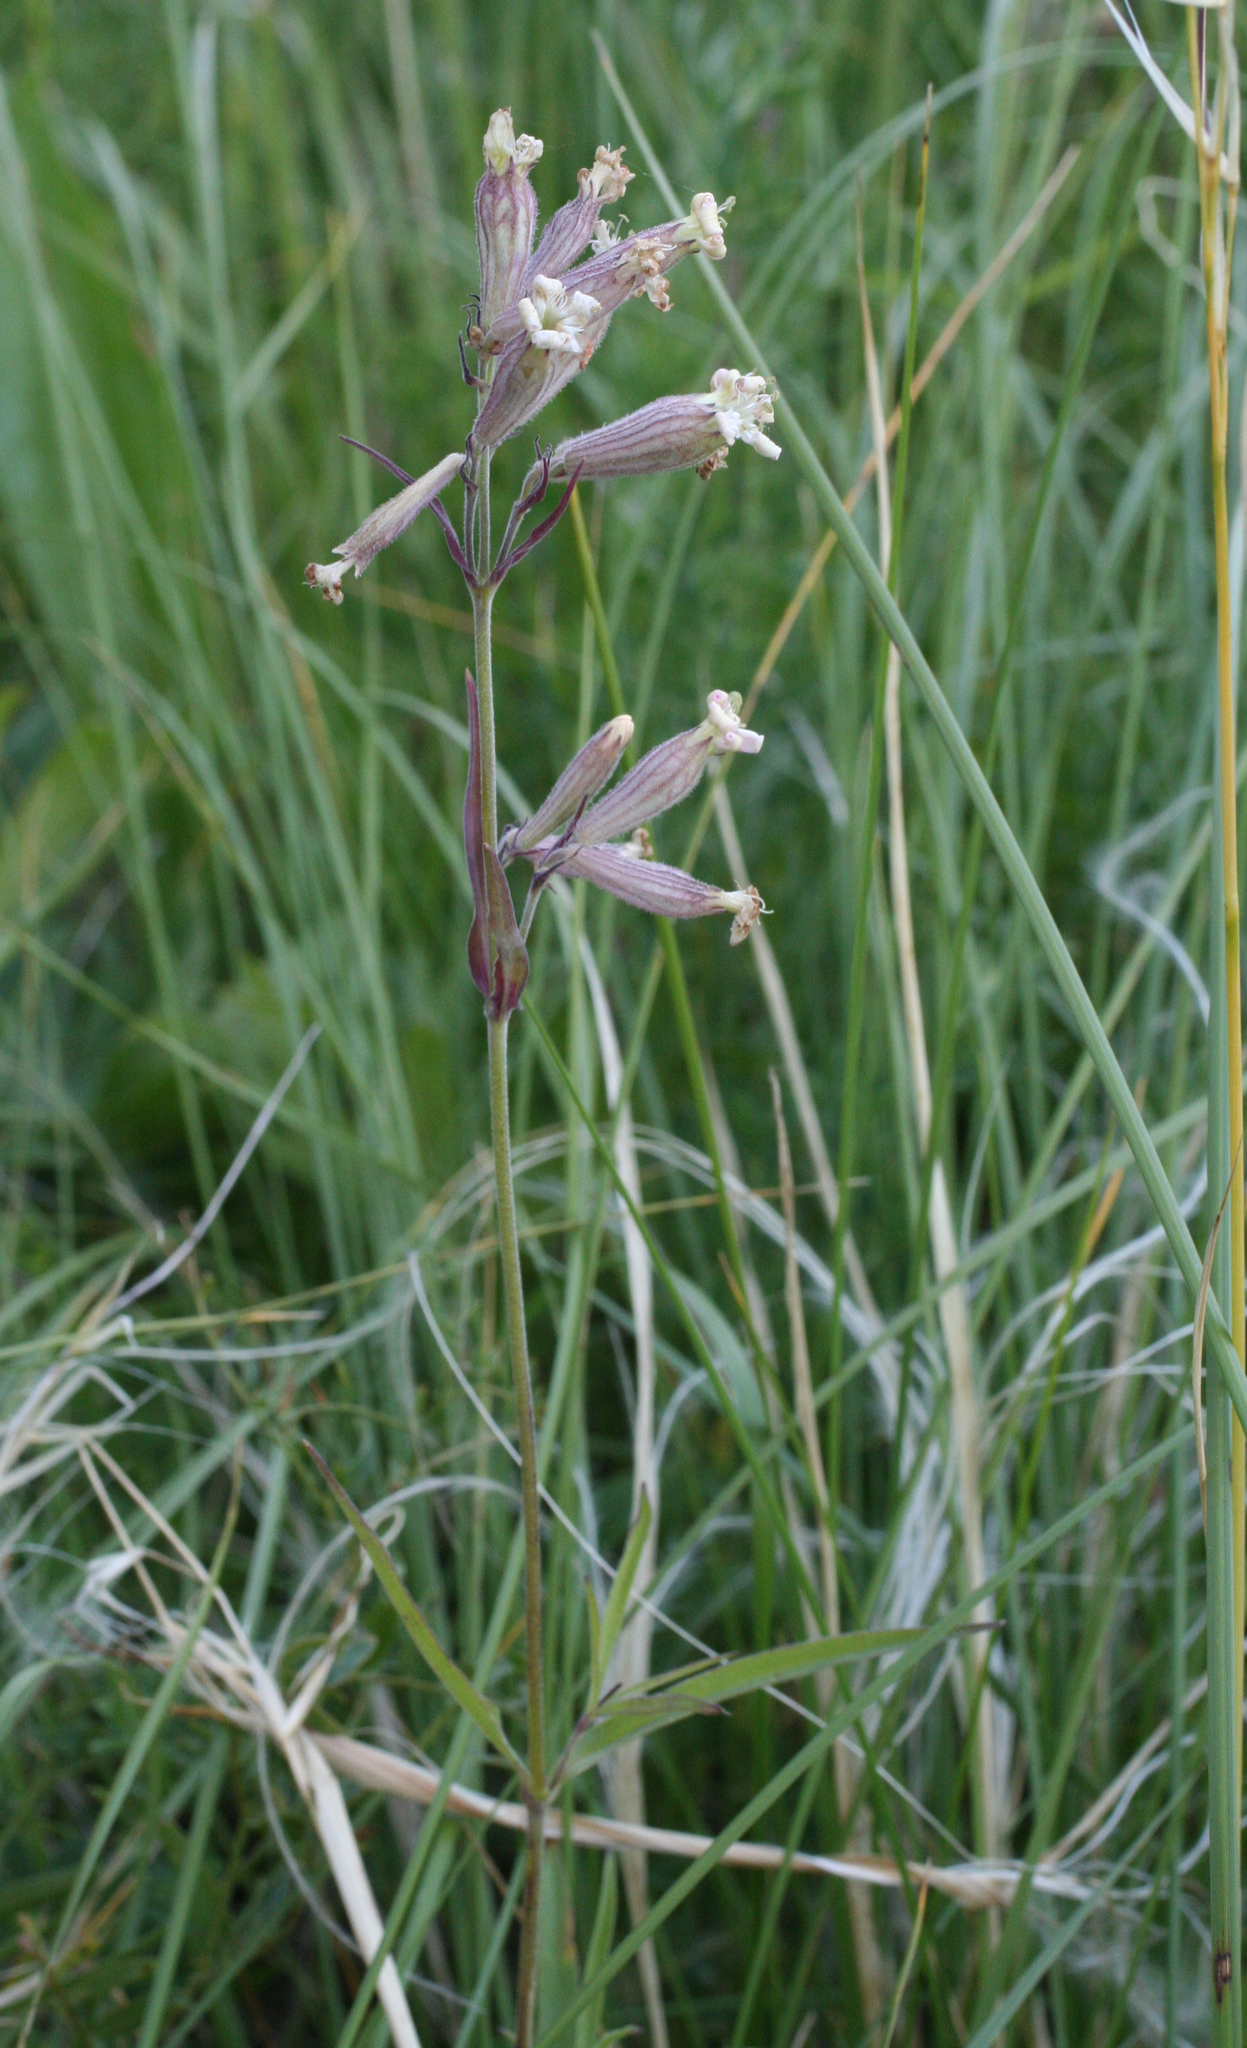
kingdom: Plantae
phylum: Tracheophyta
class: Magnoliopsida
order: Caryophyllales
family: Caryophyllaceae
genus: Silene
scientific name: Silene amoena
